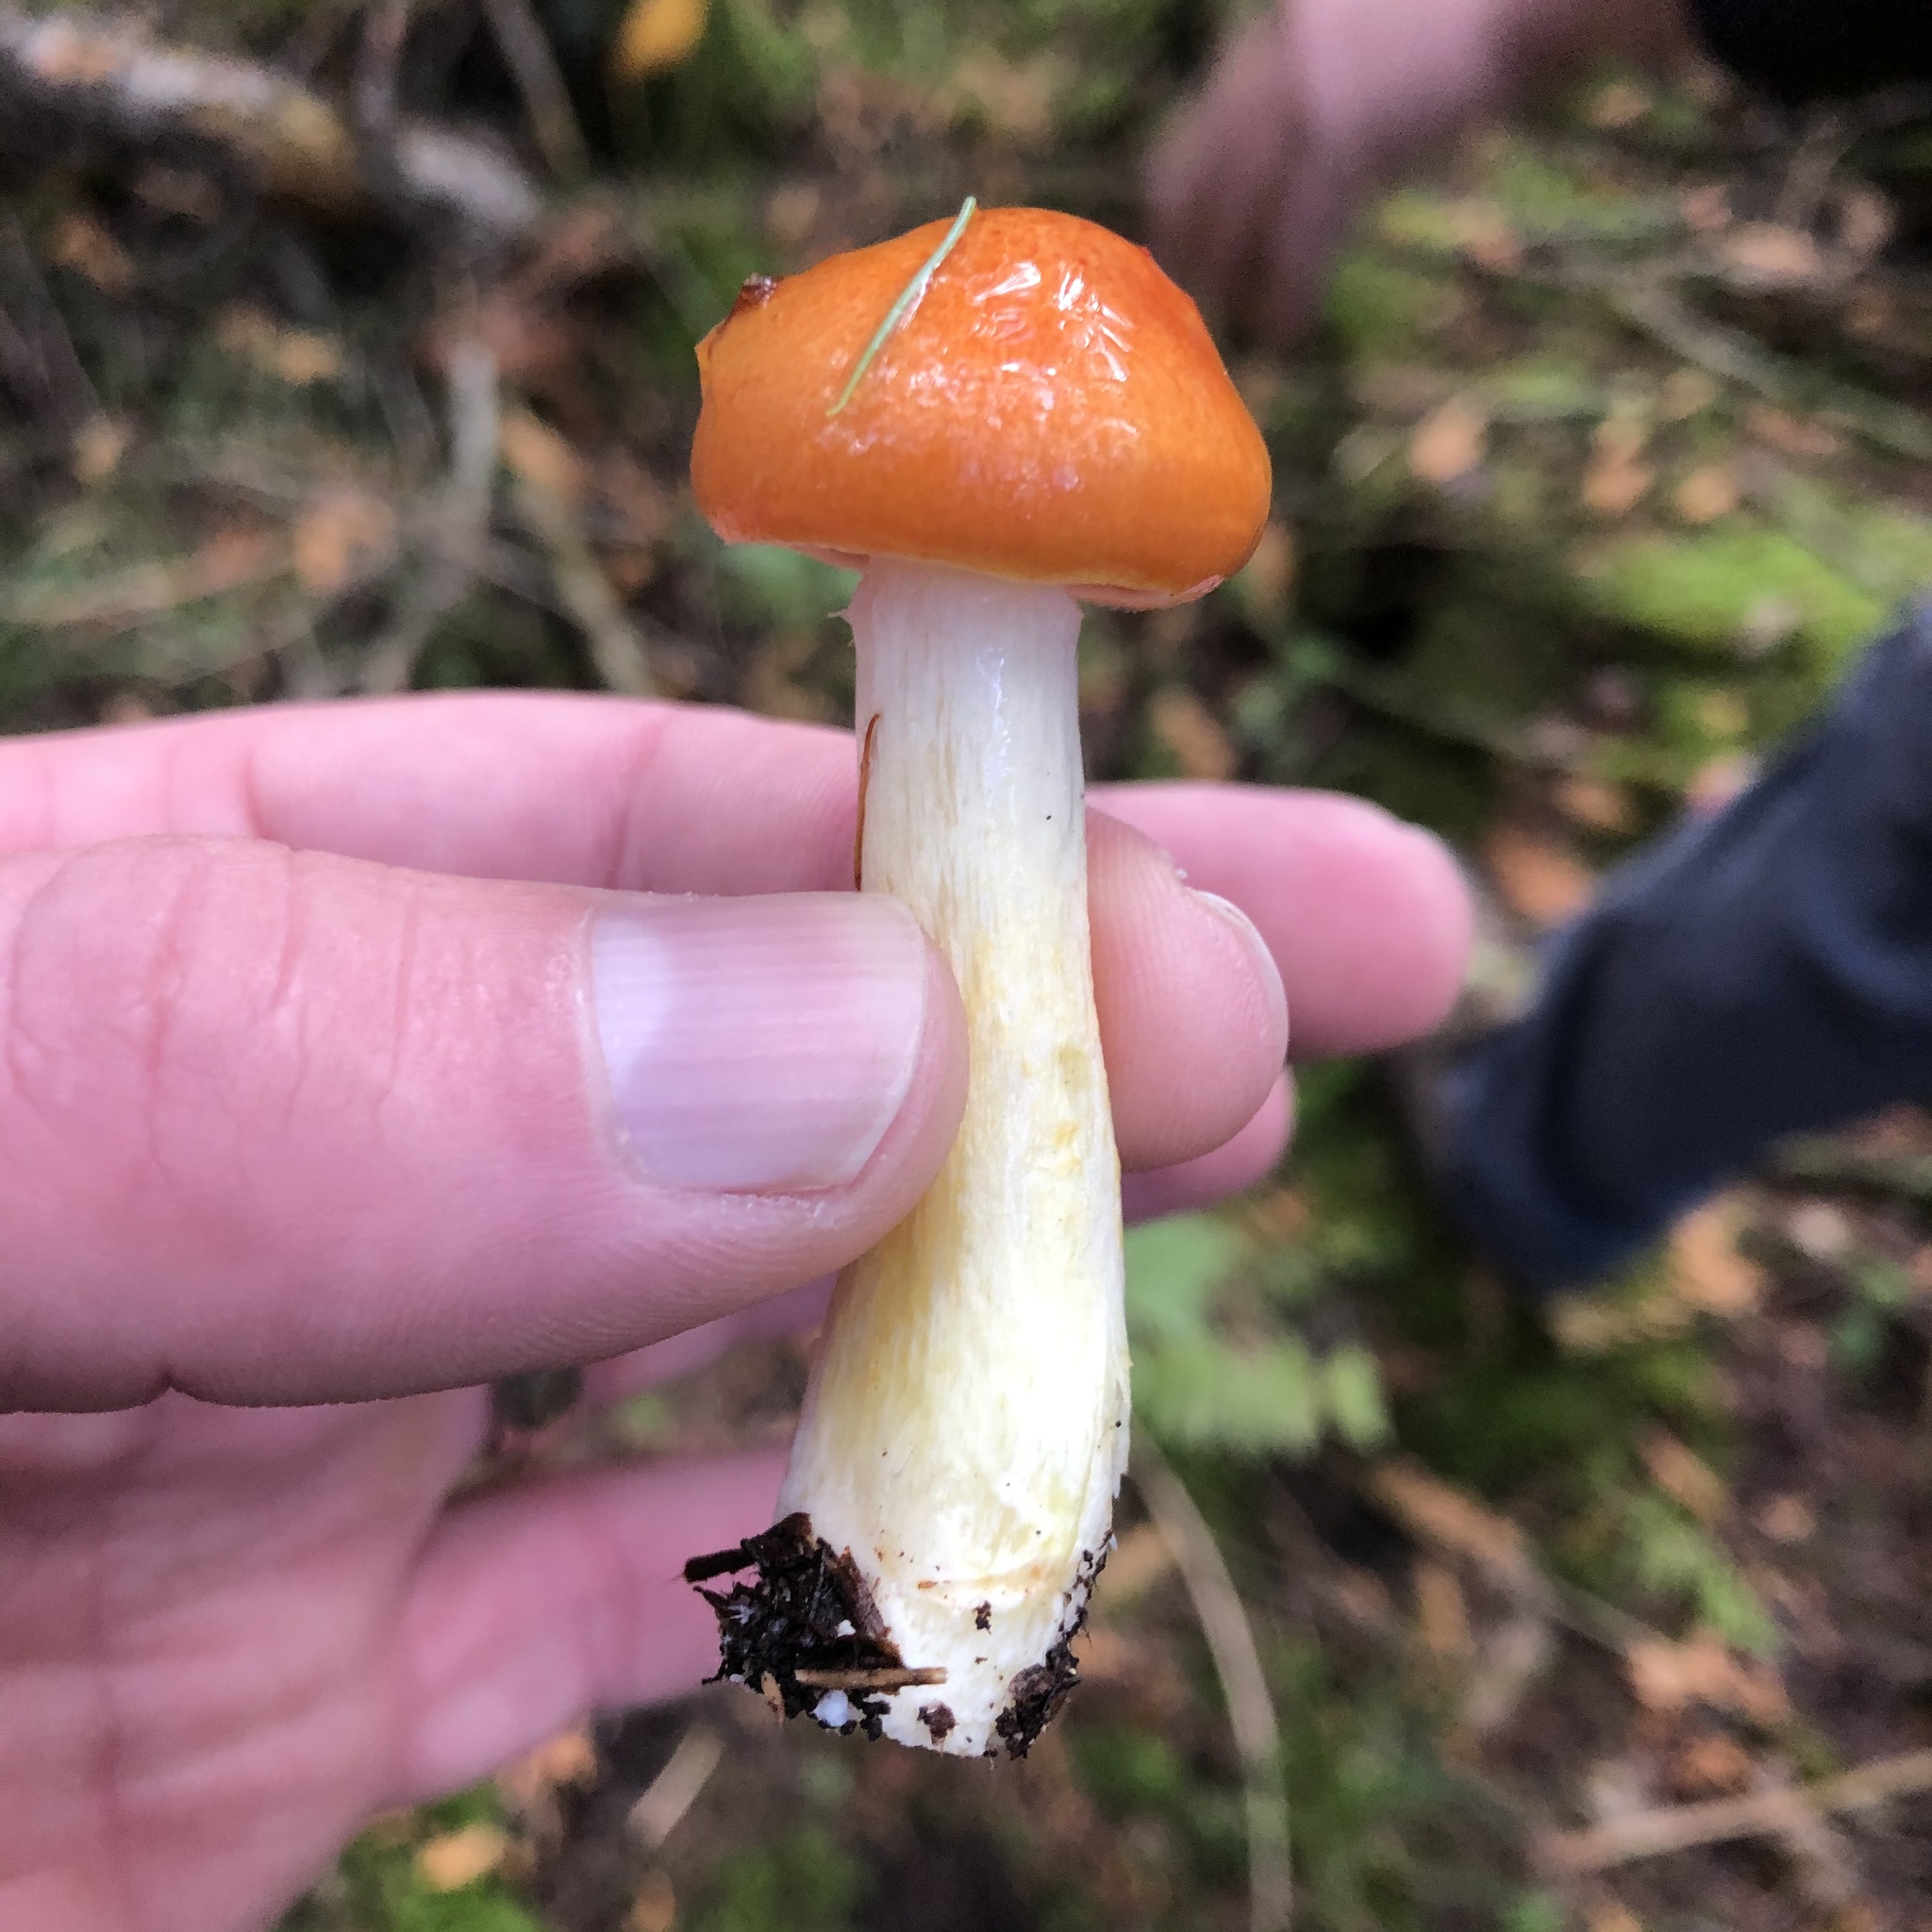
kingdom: Fungi
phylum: Basidiomycota
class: Agaricomycetes
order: Agaricales
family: Hygrophoraceae
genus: Hygrophorus
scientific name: Hygrophorus speciosus
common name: Splendid woodwax
